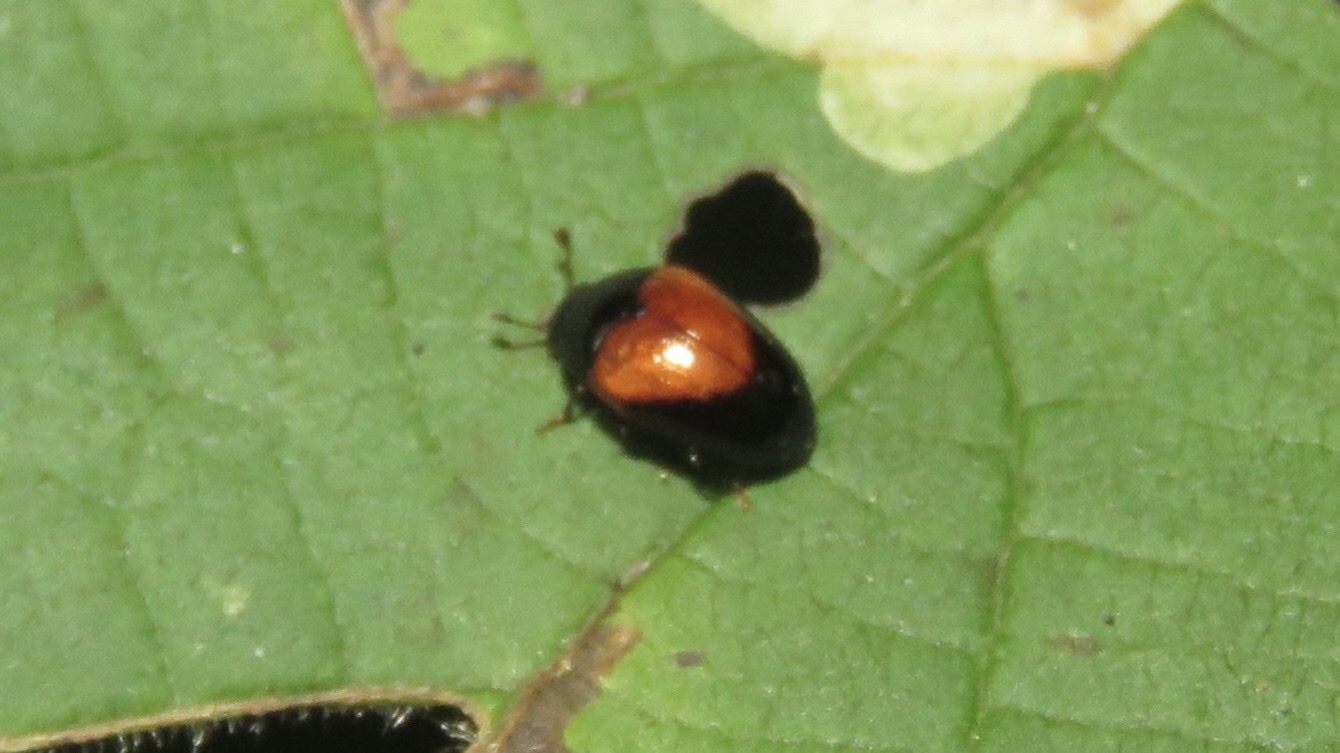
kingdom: Animalia
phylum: Arthropoda
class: Insecta
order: Coleoptera
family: Erotylidae
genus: Tritoma
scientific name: Tritoma pulchra
